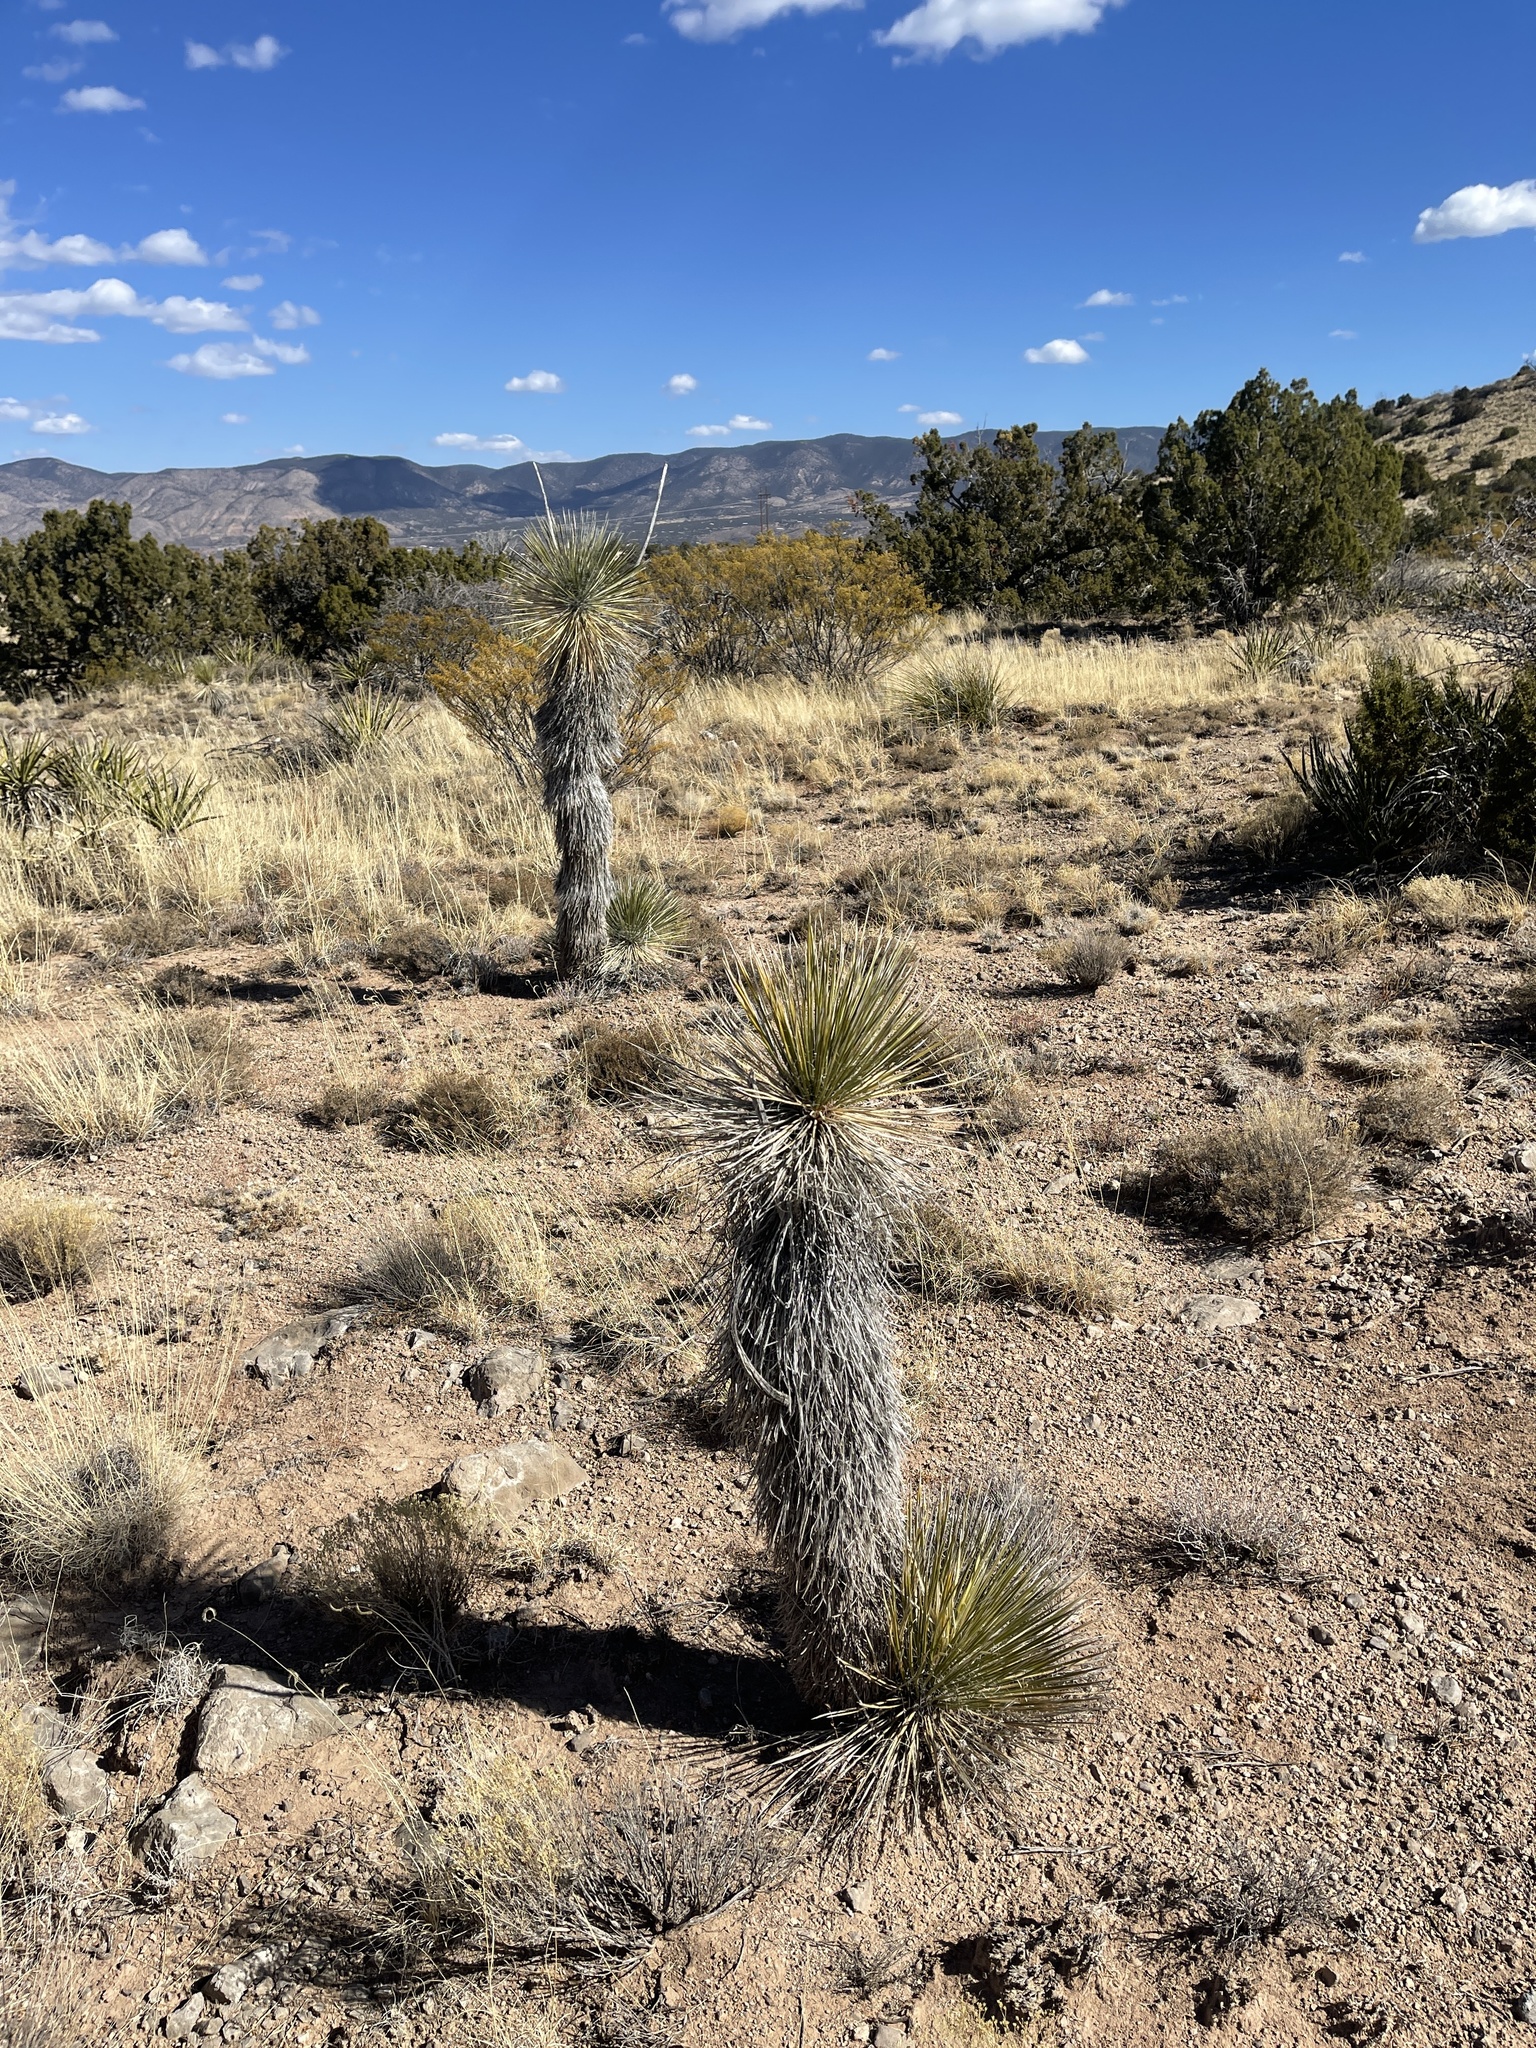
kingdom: Plantae
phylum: Tracheophyta
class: Liliopsida
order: Asparagales
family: Asparagaceae
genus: Yucca
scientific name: Yucca elata
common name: Palmella
